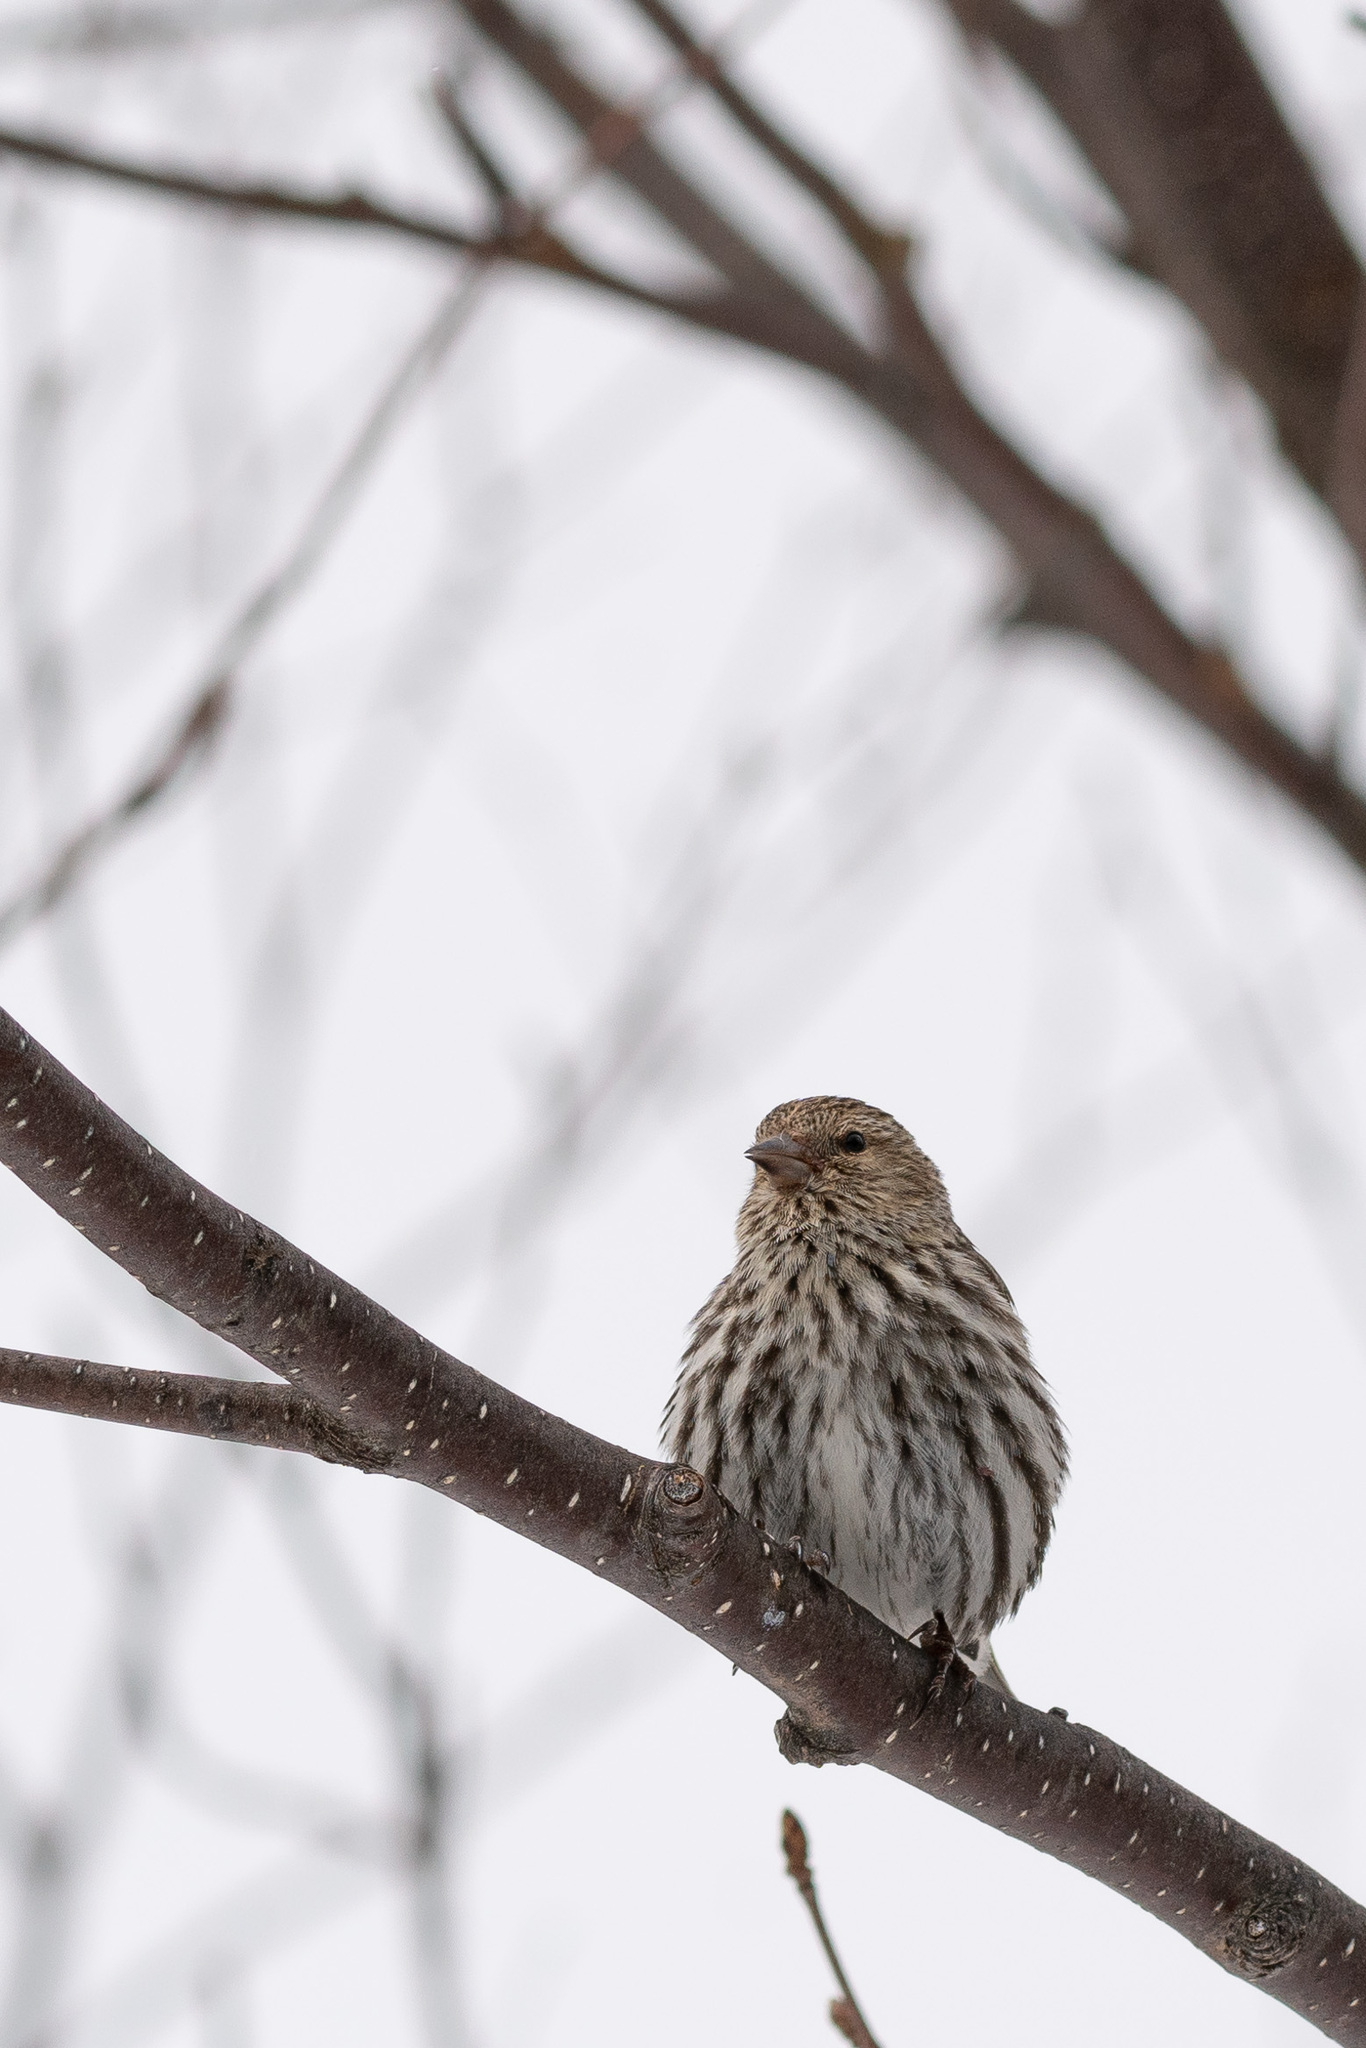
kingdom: Animalia
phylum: Chordata
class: Aves
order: Passeriformes
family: Fringillidae
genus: Spinus
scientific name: Spinus pinus
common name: Pine siskin
